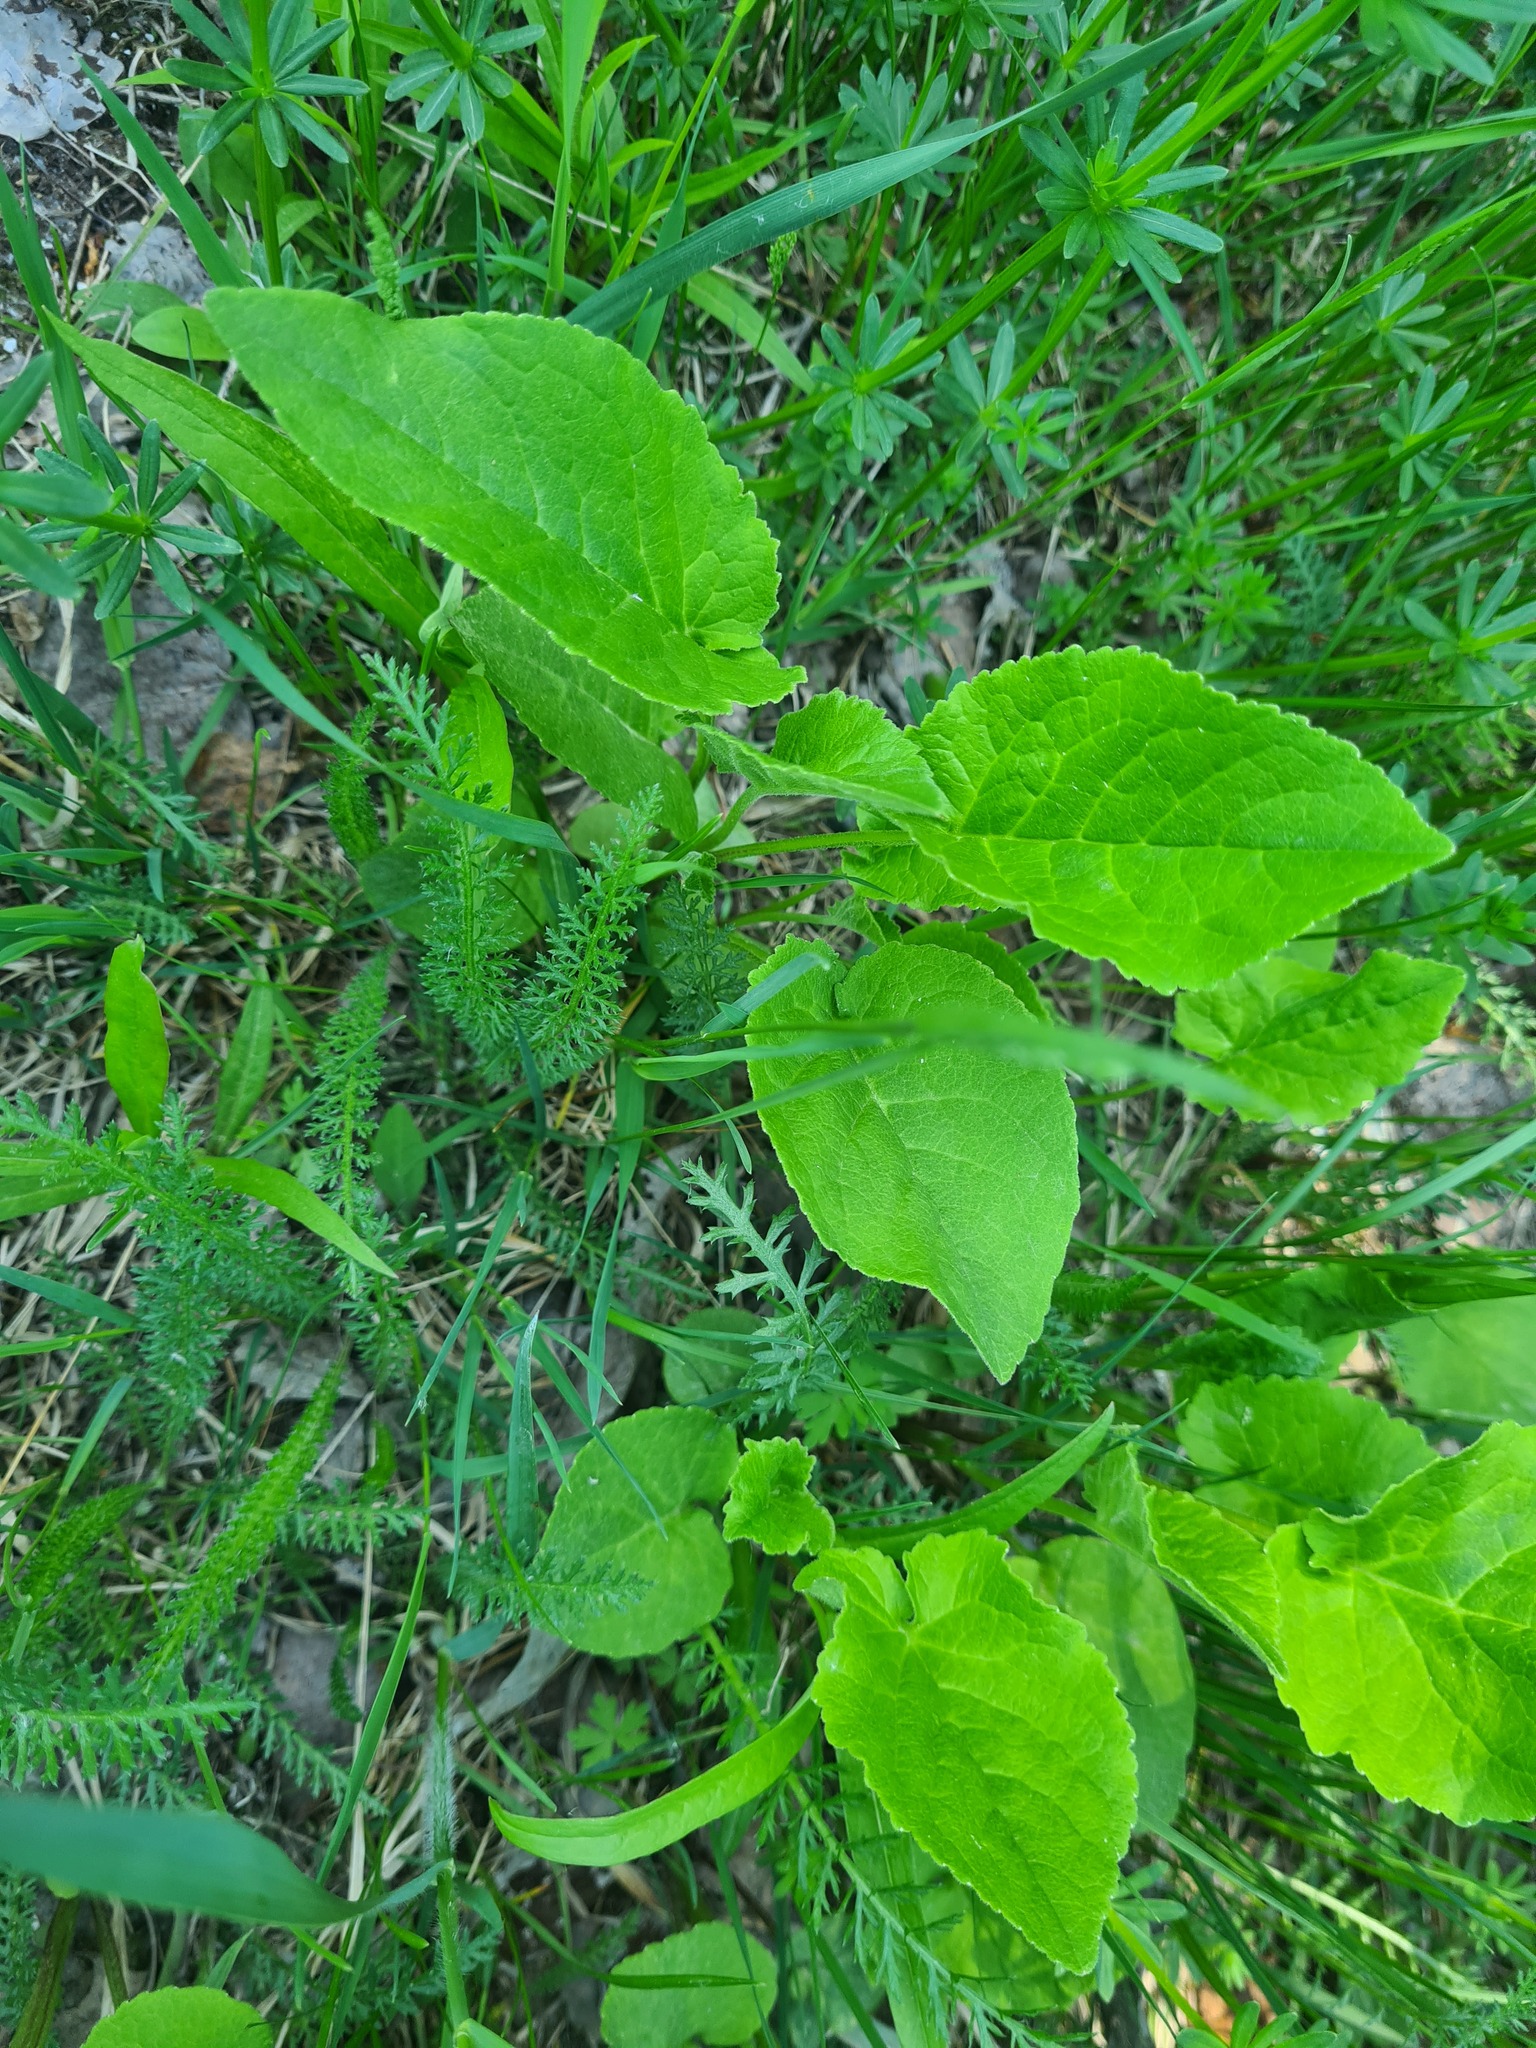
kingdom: Plantae
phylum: Tracheophyta
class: Magnoliopsida
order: Asterales
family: Campanulaceae
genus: Campanula
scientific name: Campanula rapunculoides
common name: Creeping bellflower
